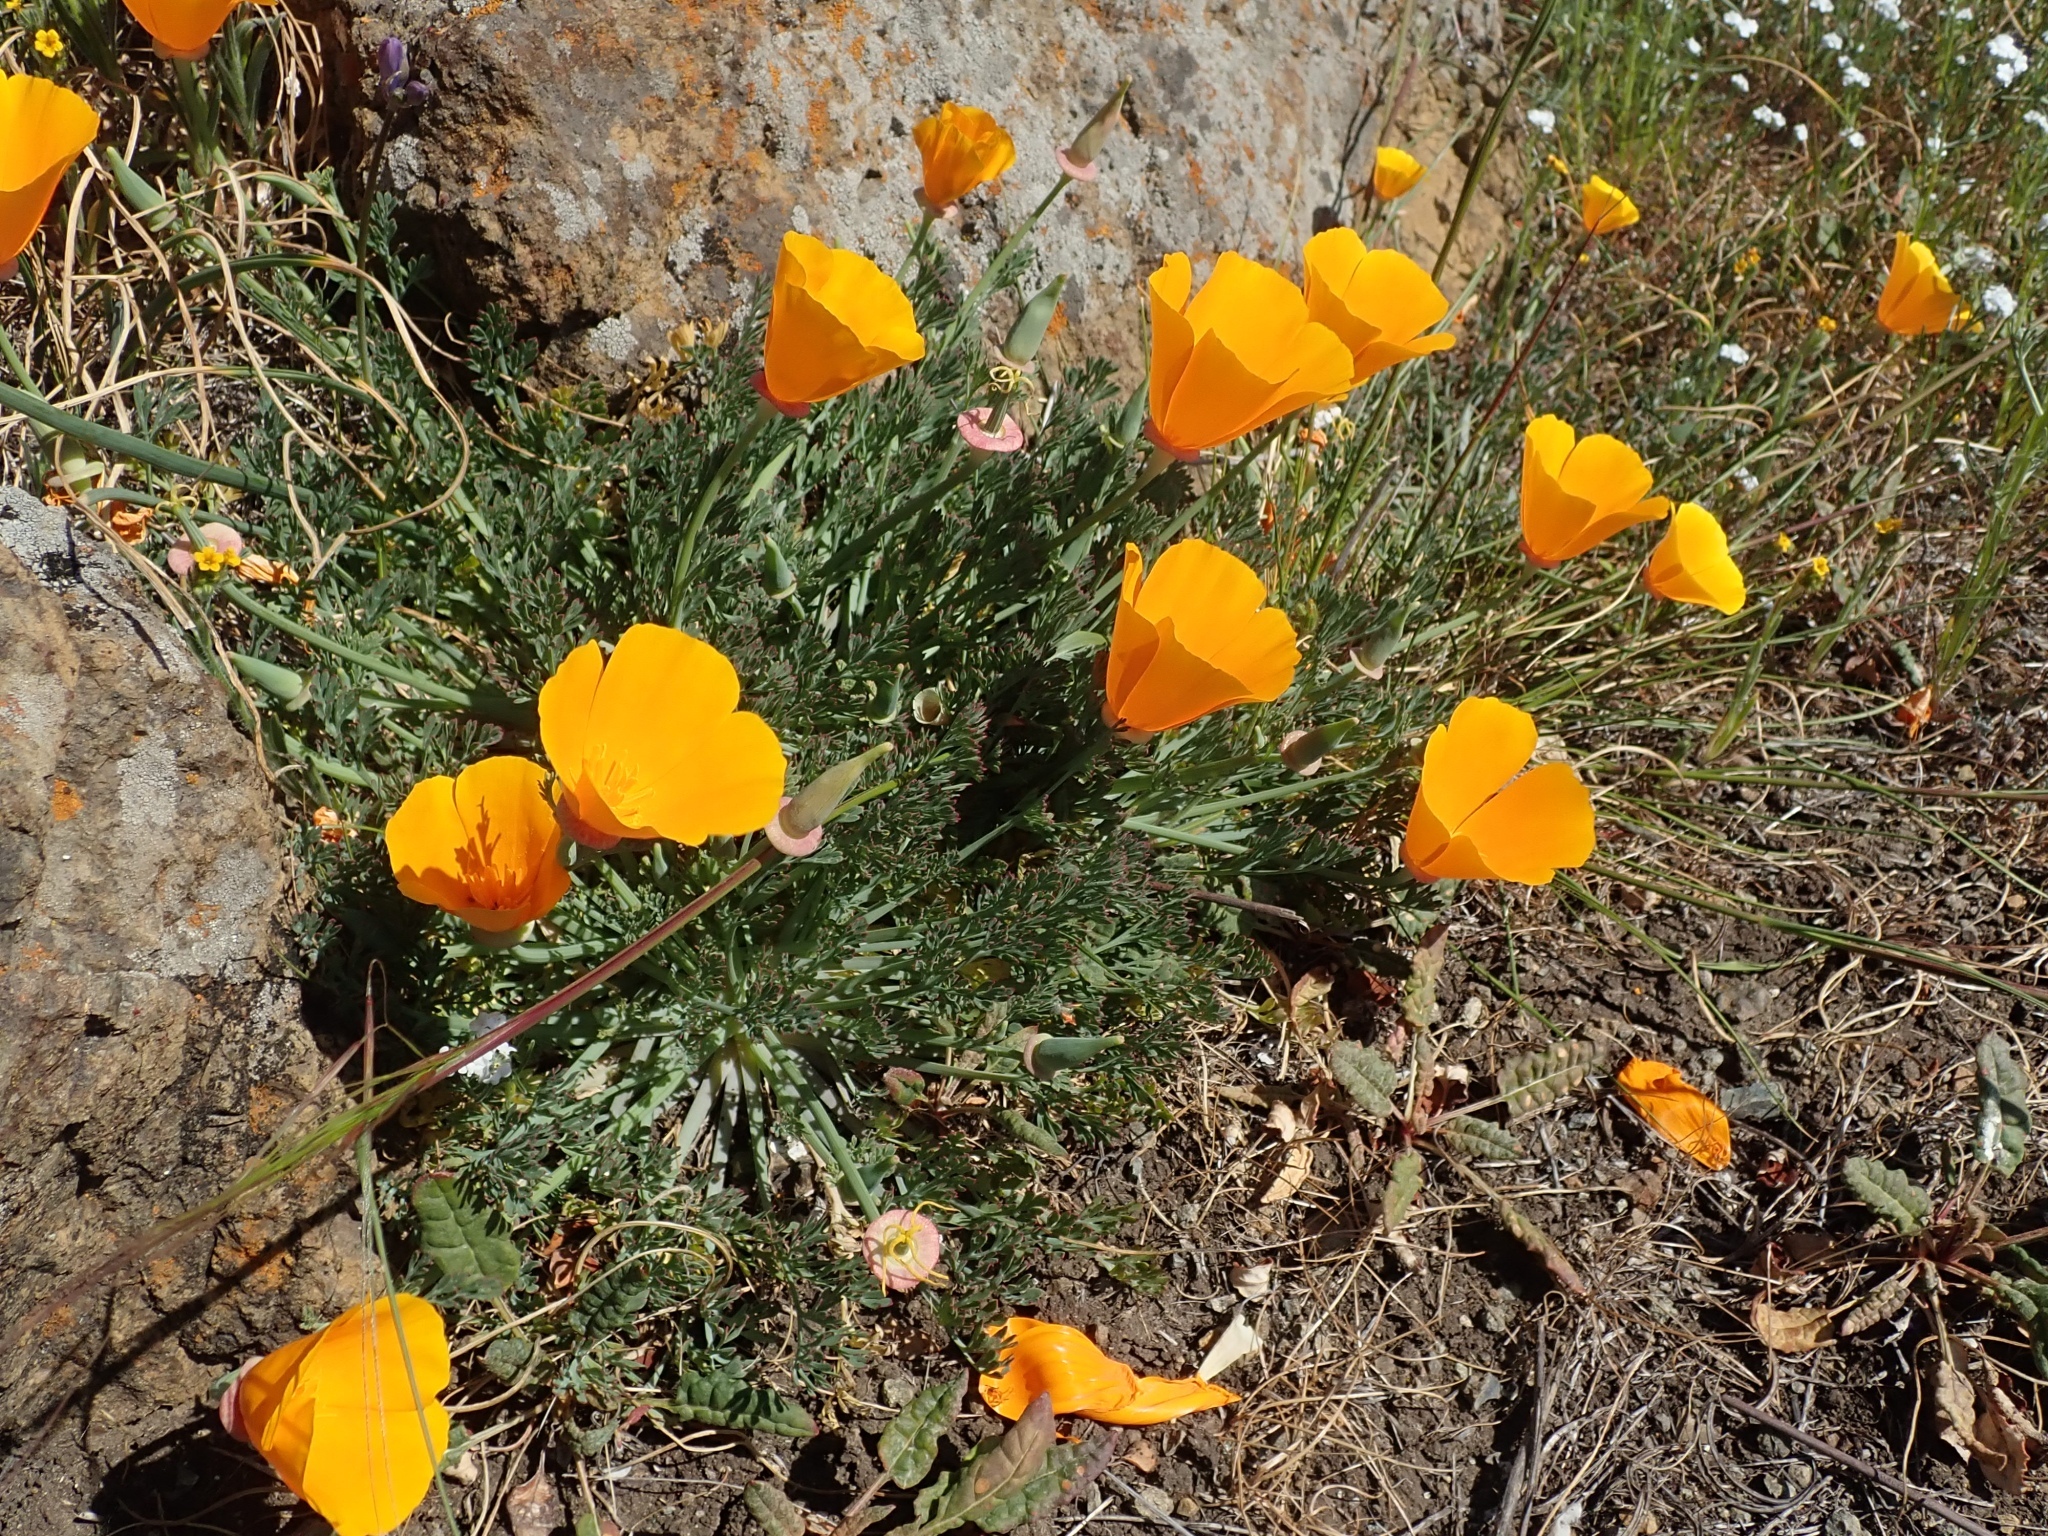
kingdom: Plantae
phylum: Tracheophyta
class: Magnoliopsida
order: Ranunculales
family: Papaveraceae
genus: Eschscholzia
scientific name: Eschscholzia californica
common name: California poppy
